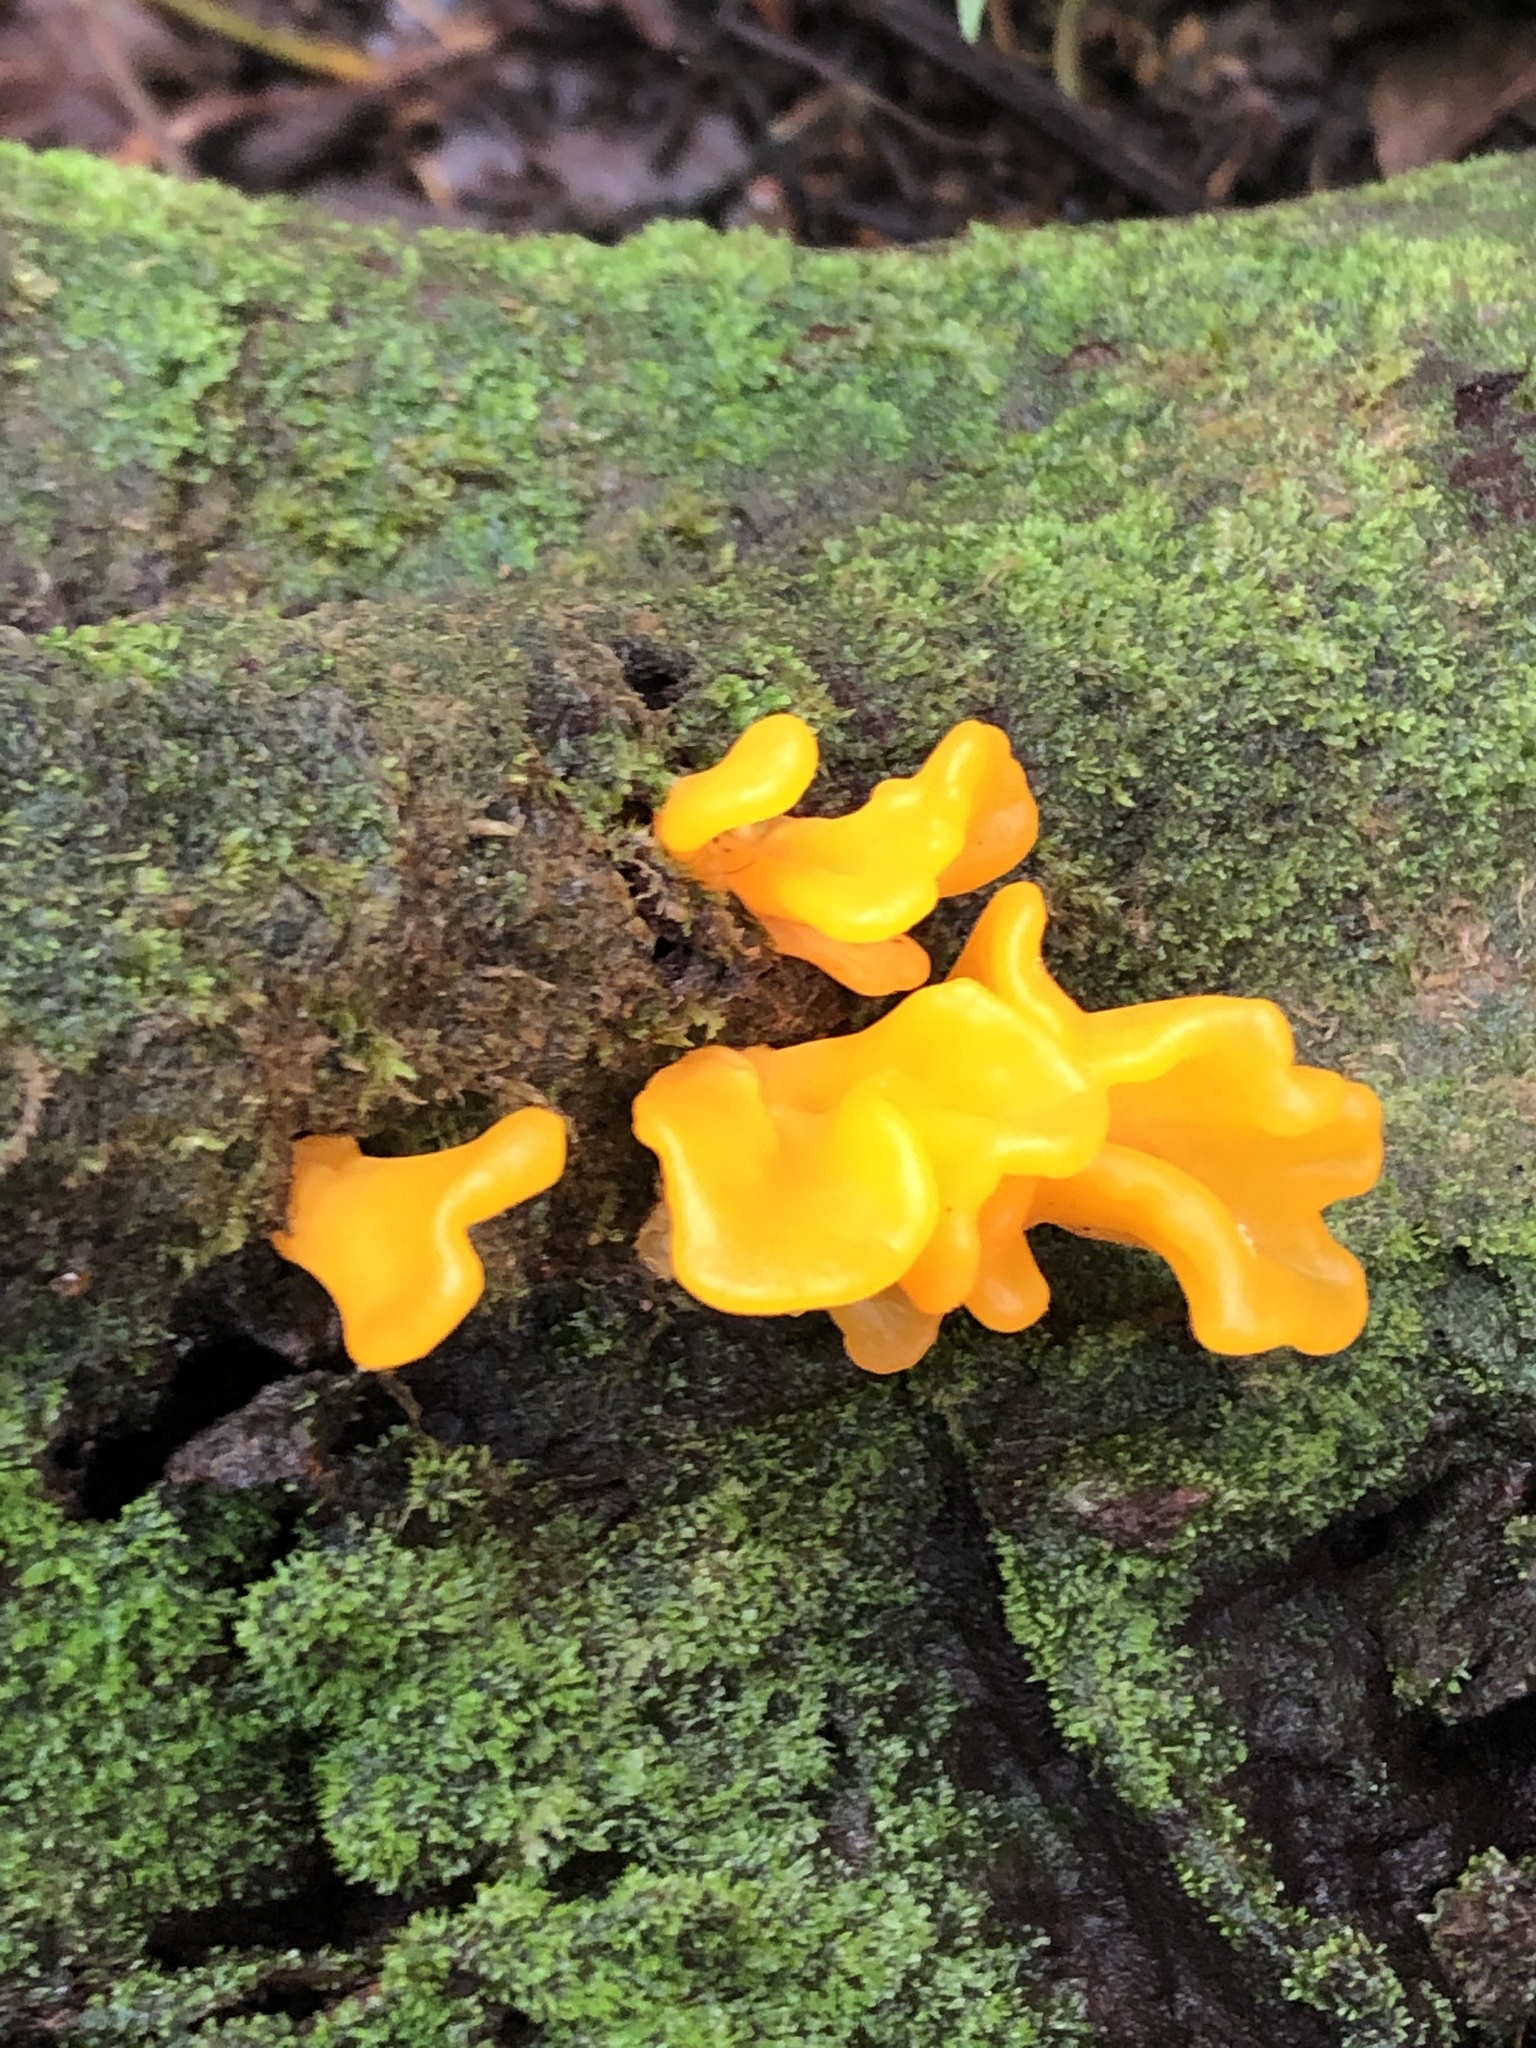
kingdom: Fungi
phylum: Basidiomycota
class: Dacrymycetes
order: Dacrymycetales
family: Dacrymycetaceae
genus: Dacrymyces
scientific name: Dacrymyces spathularius
